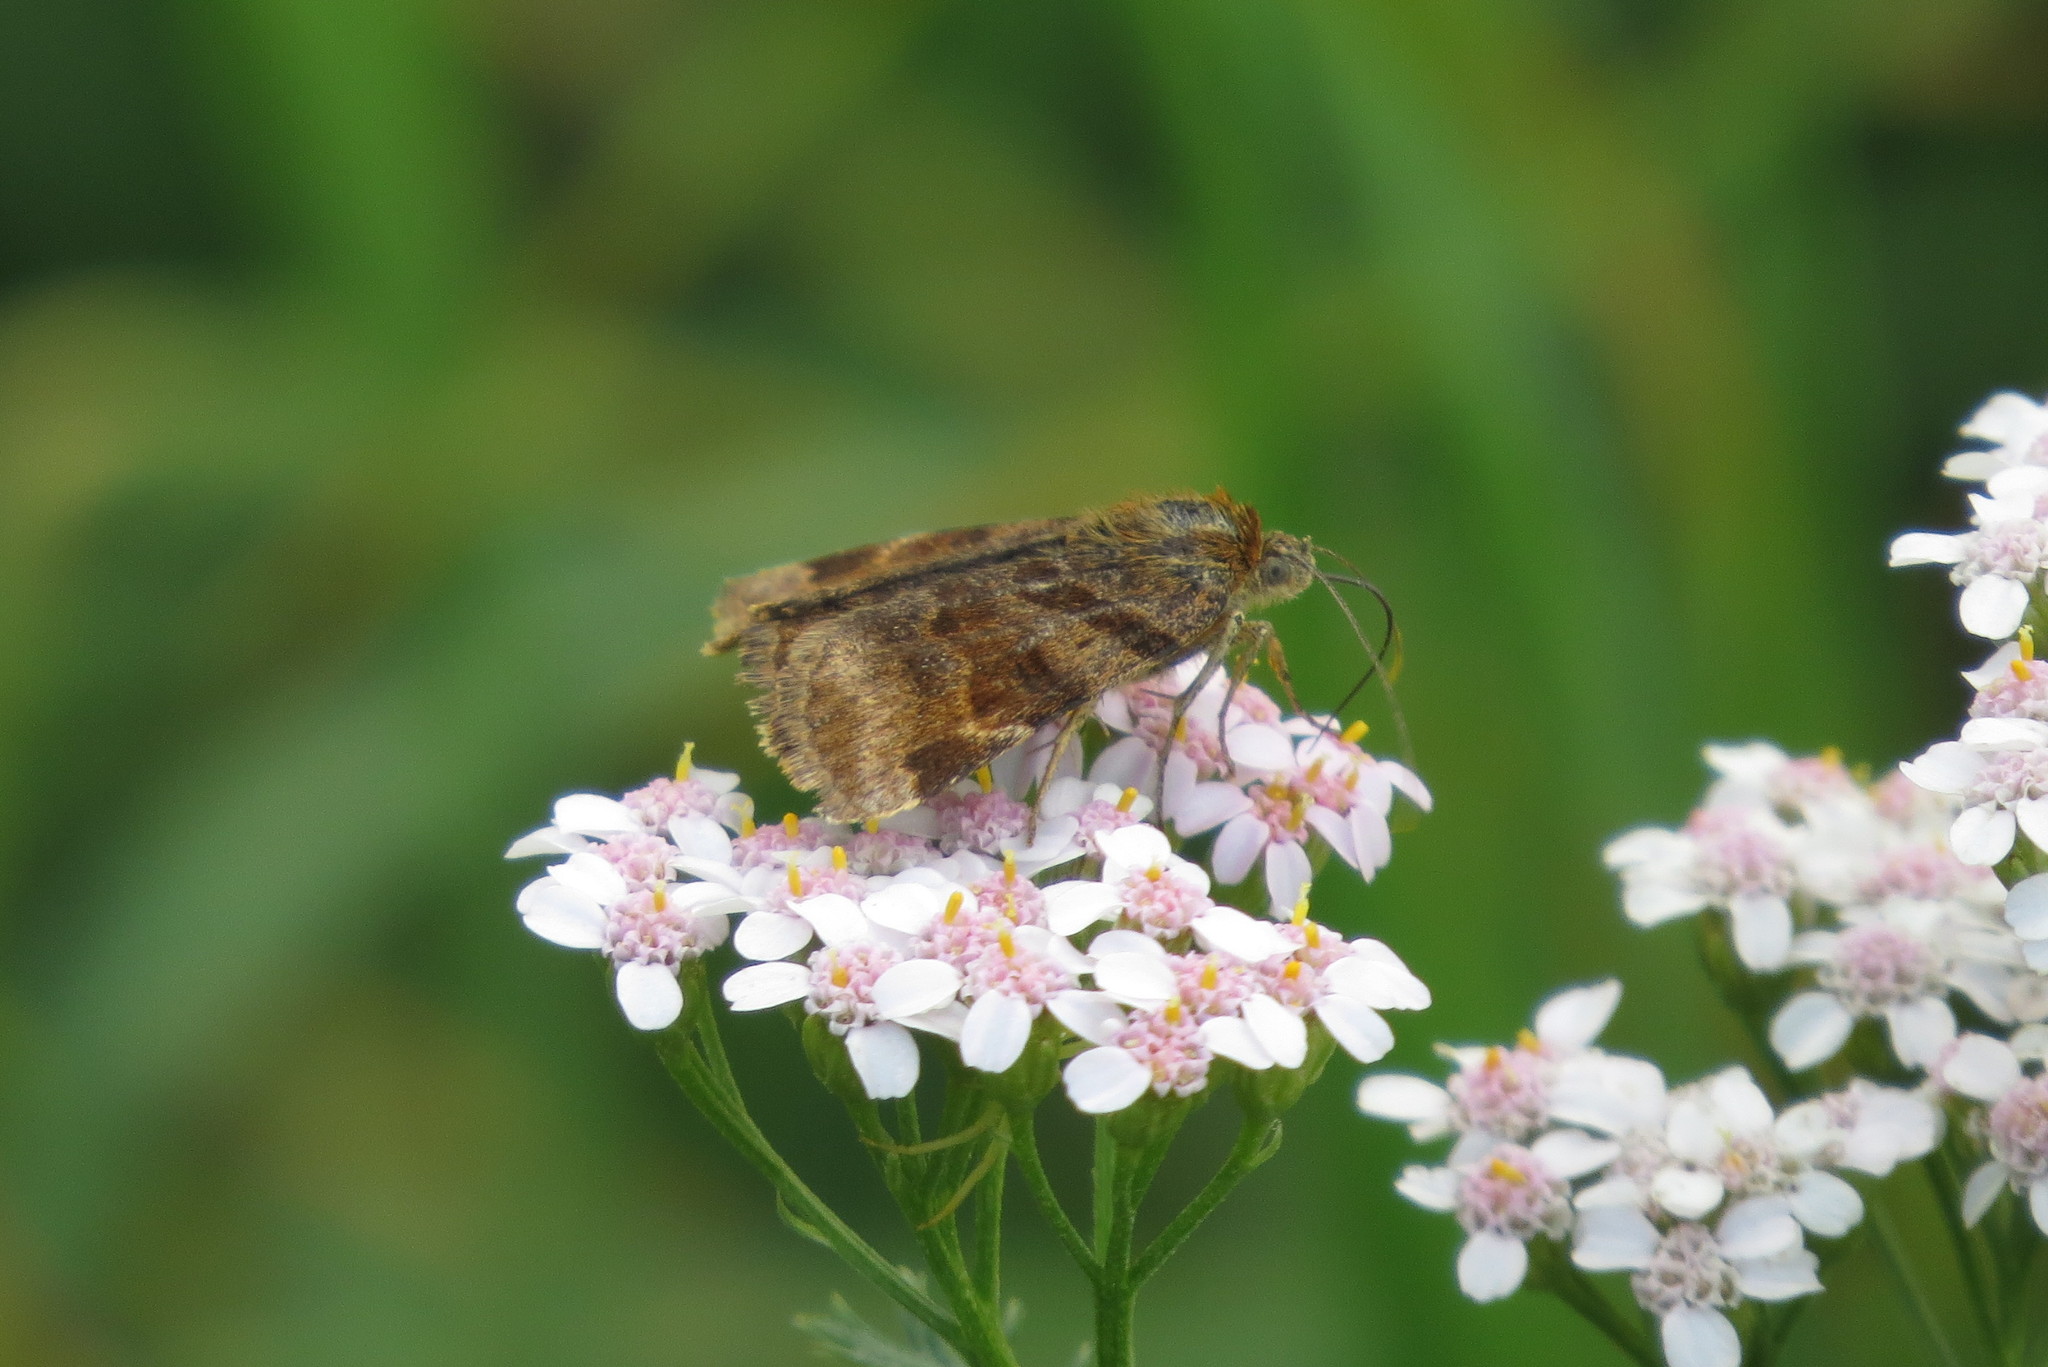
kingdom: Animalia
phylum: Arthropoda
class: Insecta
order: Lepidoptera
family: Erebidae
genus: Euclidia
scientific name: Euclidia glyphica
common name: Burnet companion
